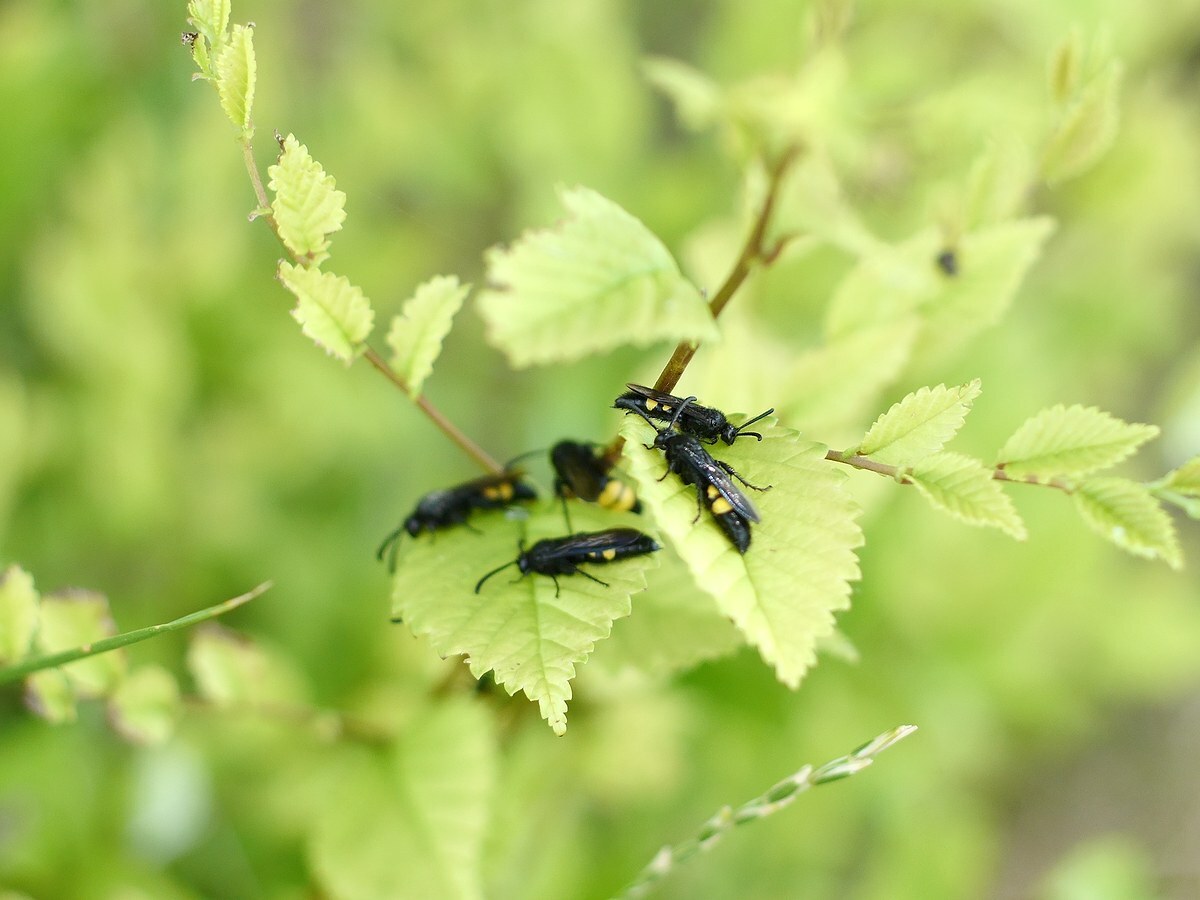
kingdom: Animalia
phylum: Arthropoda
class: Insecta
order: Hymenoptera
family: Scoliidae
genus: Scolia
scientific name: Scolia hirta
